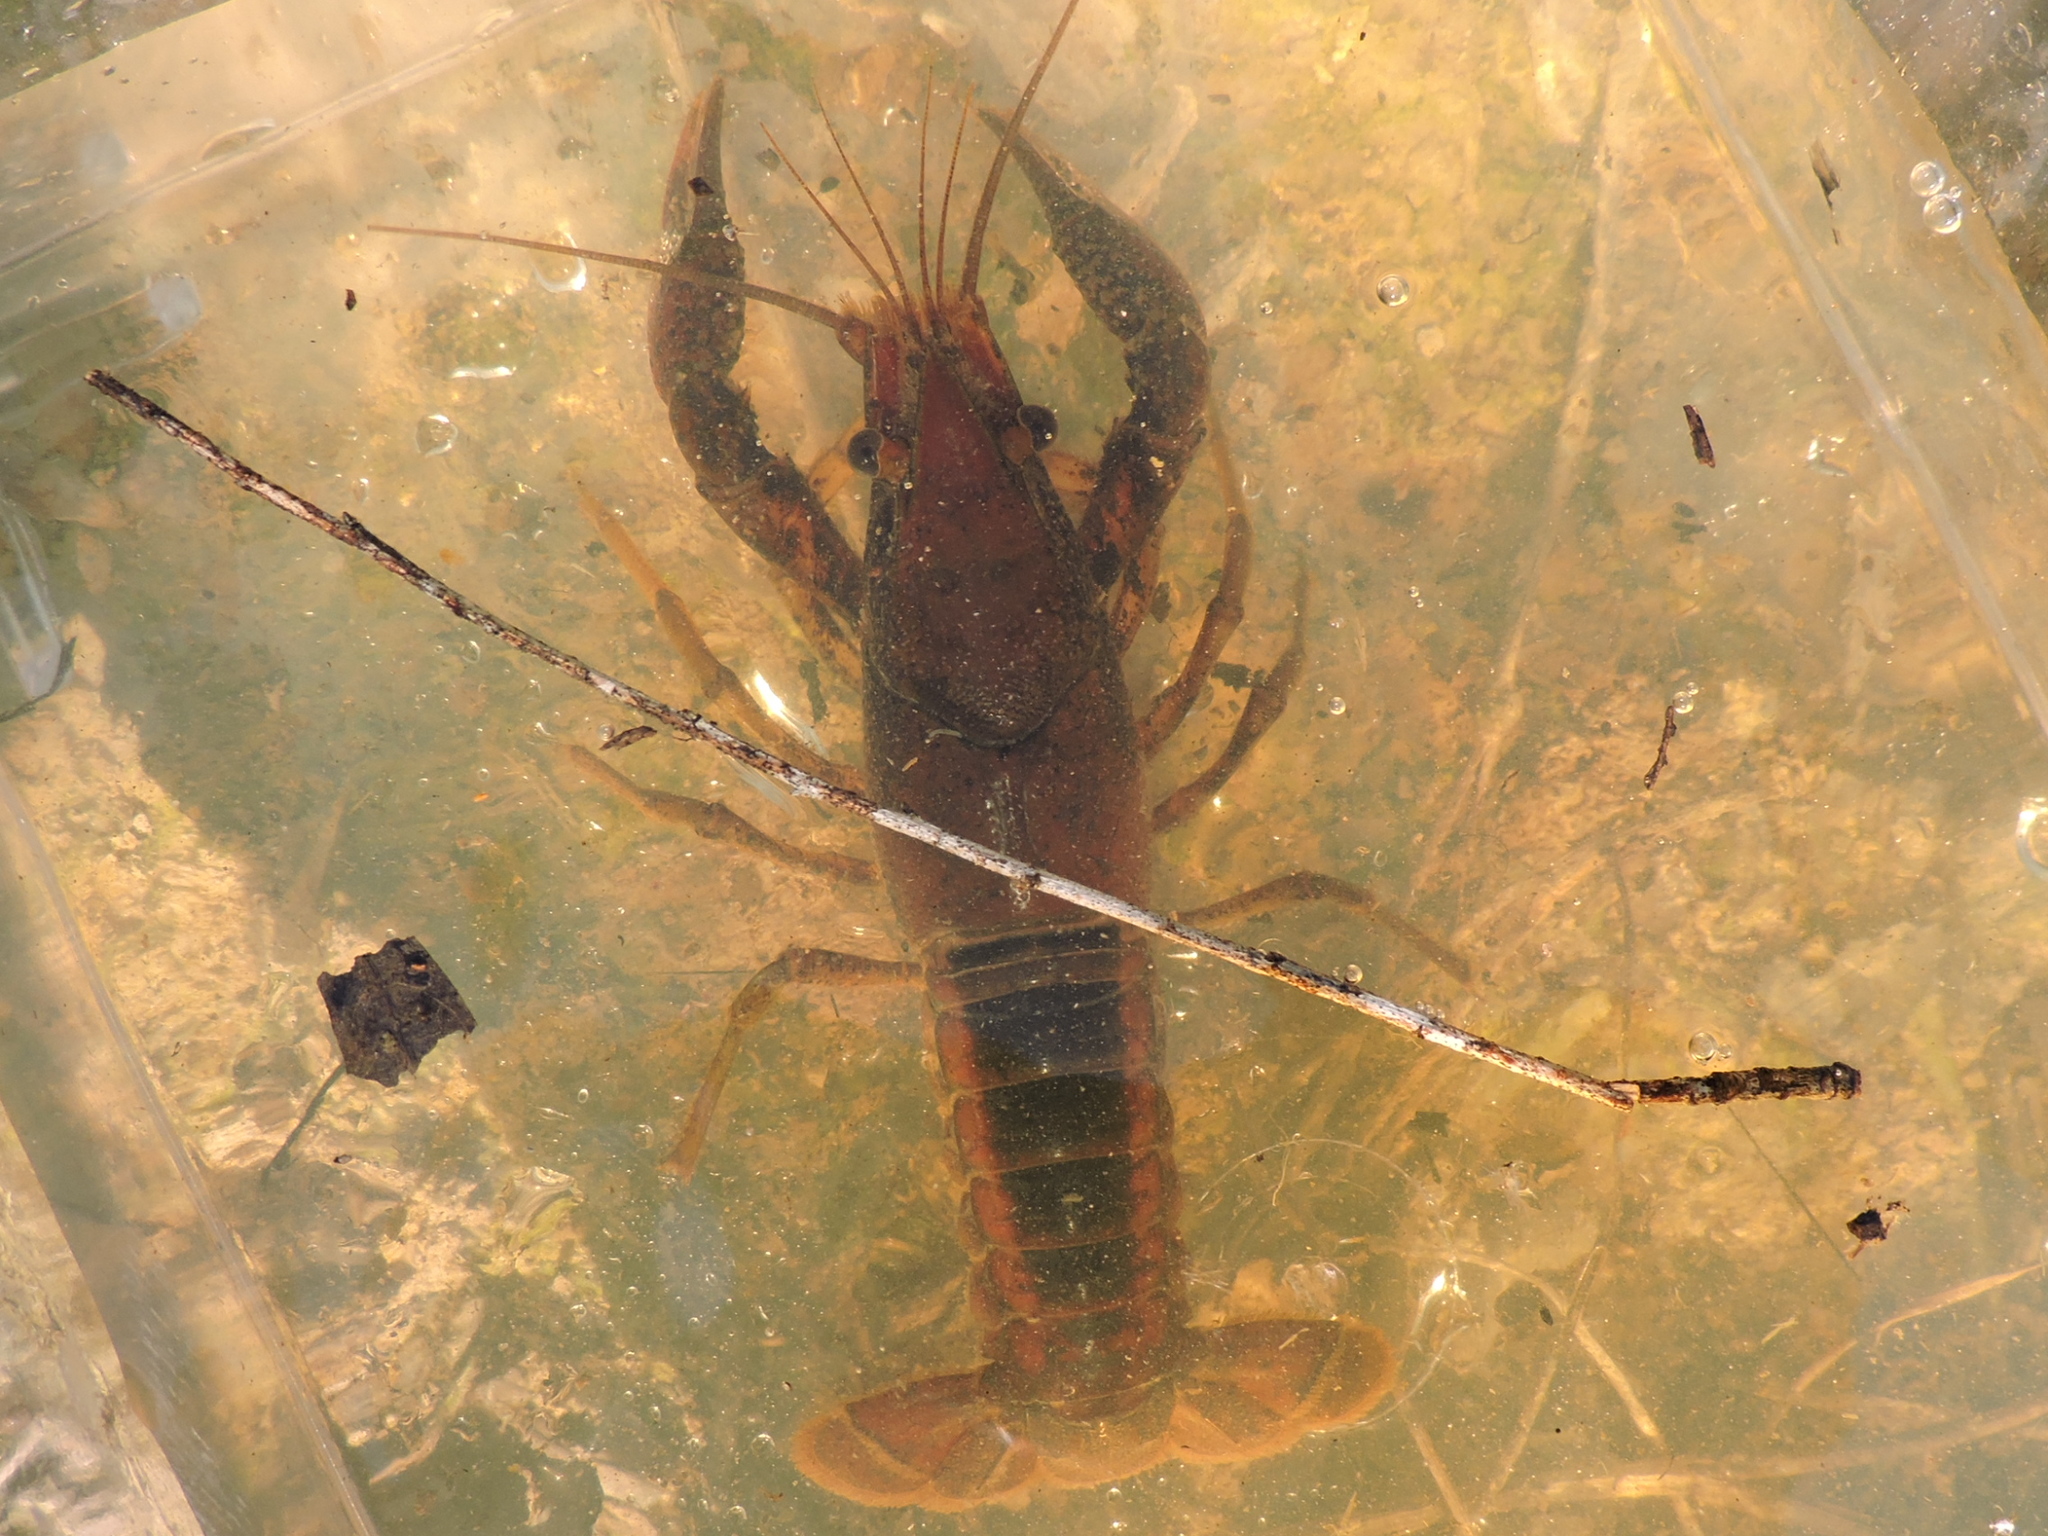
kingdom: Animalia
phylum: Arthropoda
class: Malacostraca
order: Decapoda
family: Cambaridae
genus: Procambarus
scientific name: Procambarus acutus
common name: White river crayfish
